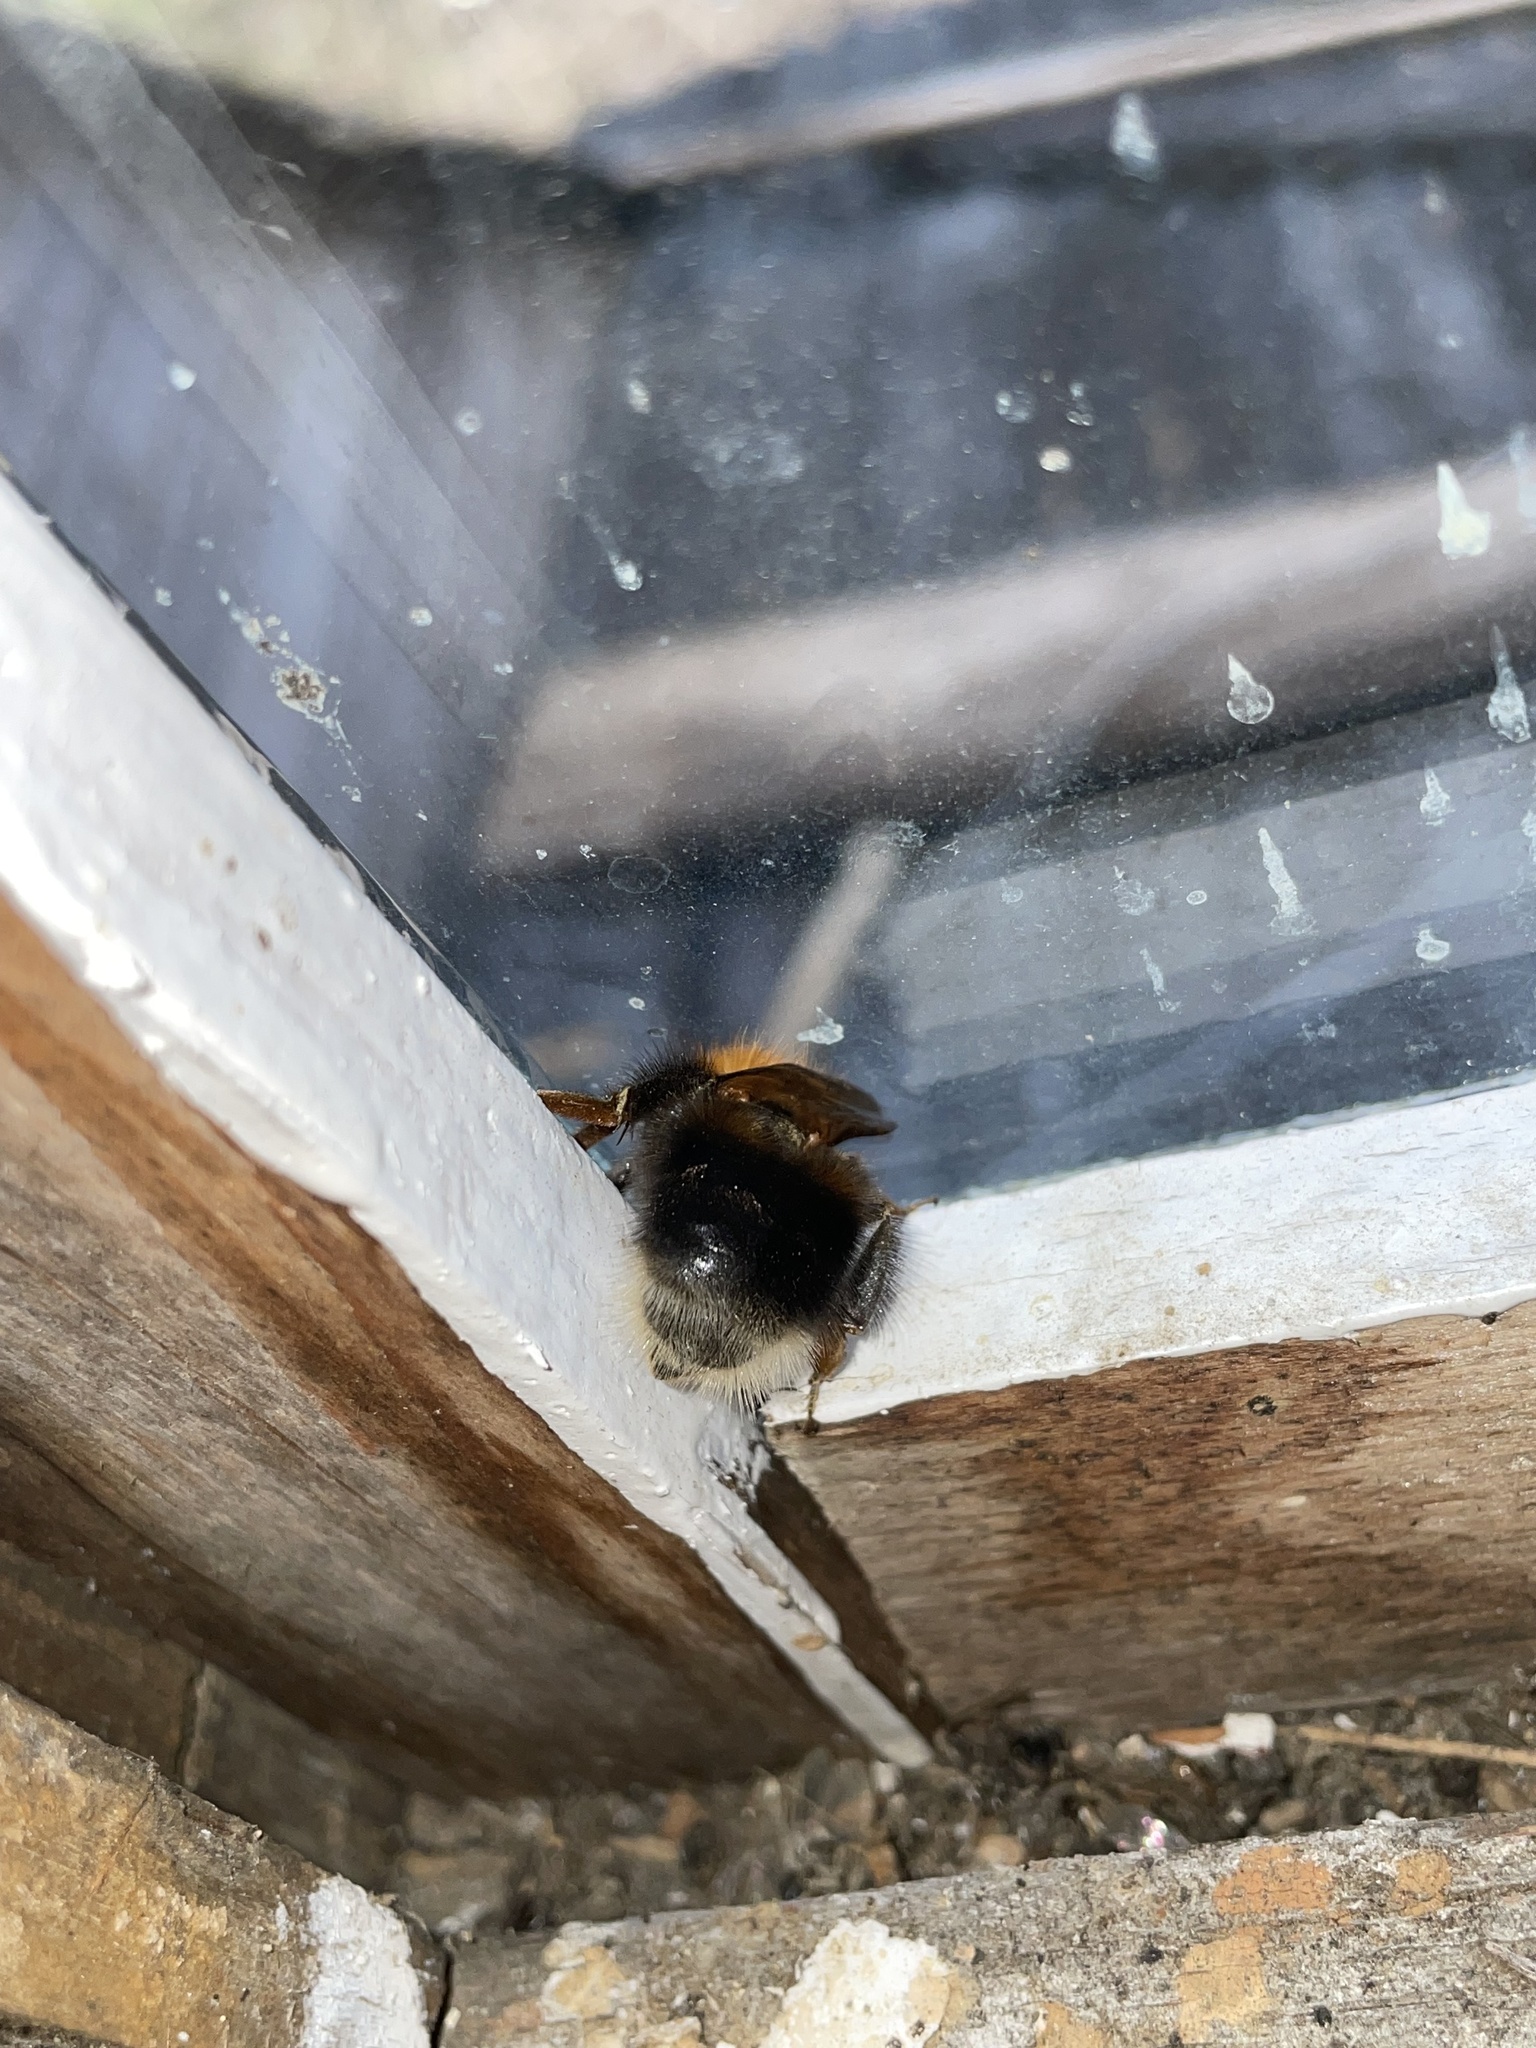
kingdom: Animalia
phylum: Arthropoda
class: Insecta
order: Hymenoptera
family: Apidae
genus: Bombus
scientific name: Bombus hypnorum
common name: New garden bumblebee
